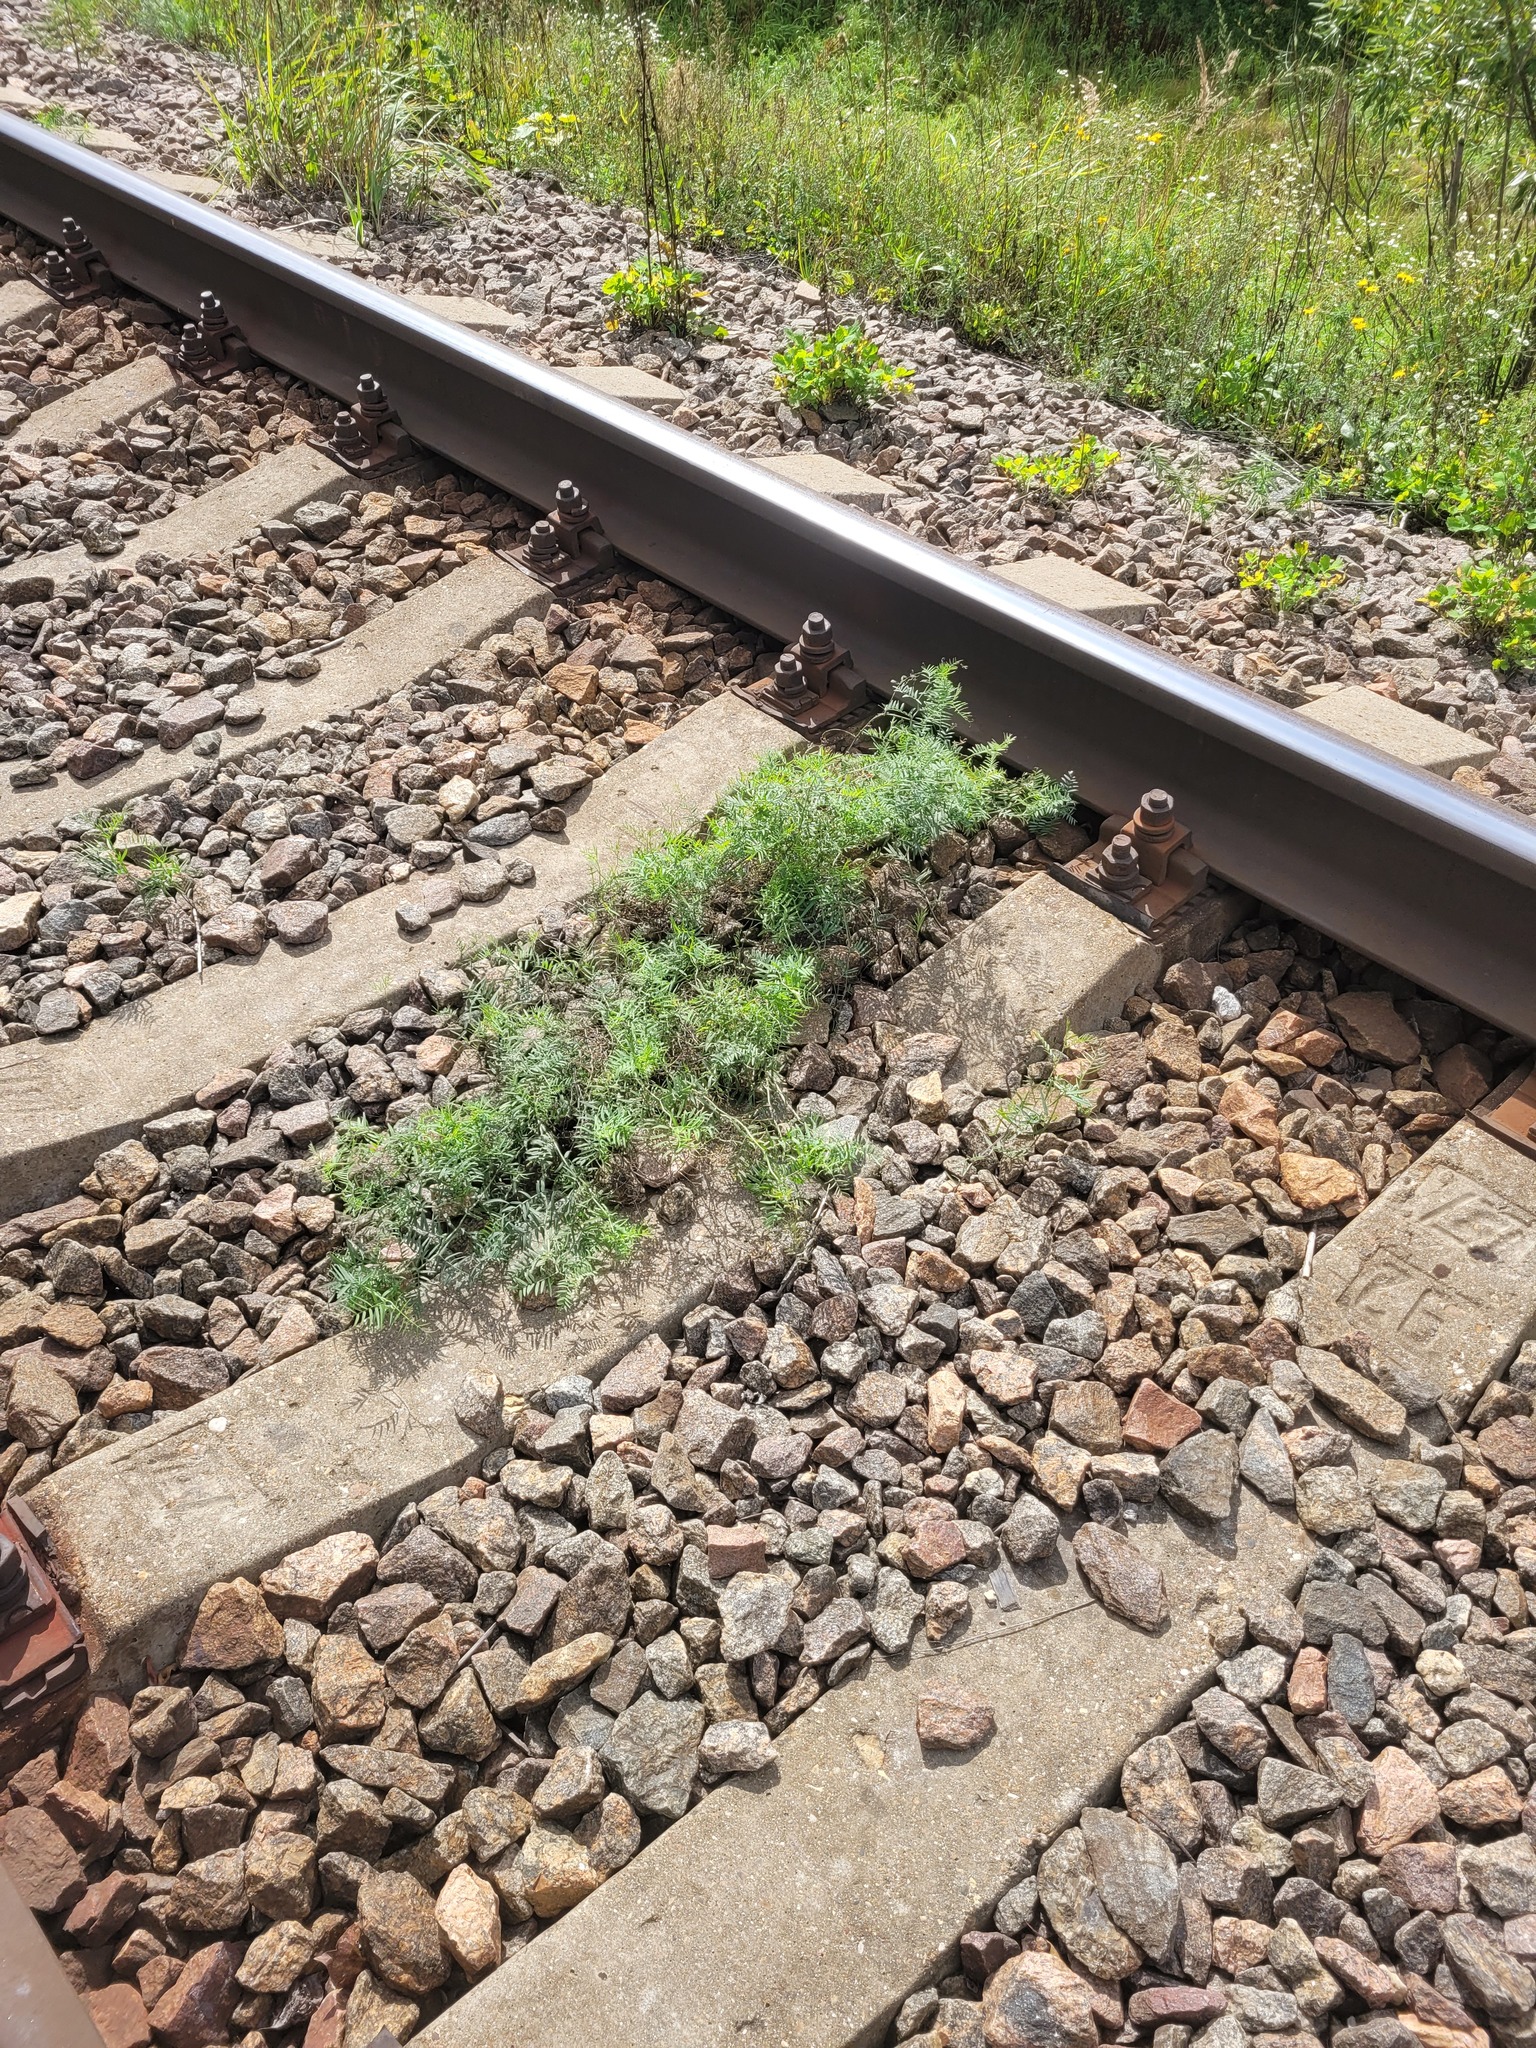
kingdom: Plantae
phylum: Tracheophyta
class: Magnoliopsida
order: Fabales
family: Fabaceae
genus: Vicia
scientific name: Vicia cracca
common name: Bird vetch
